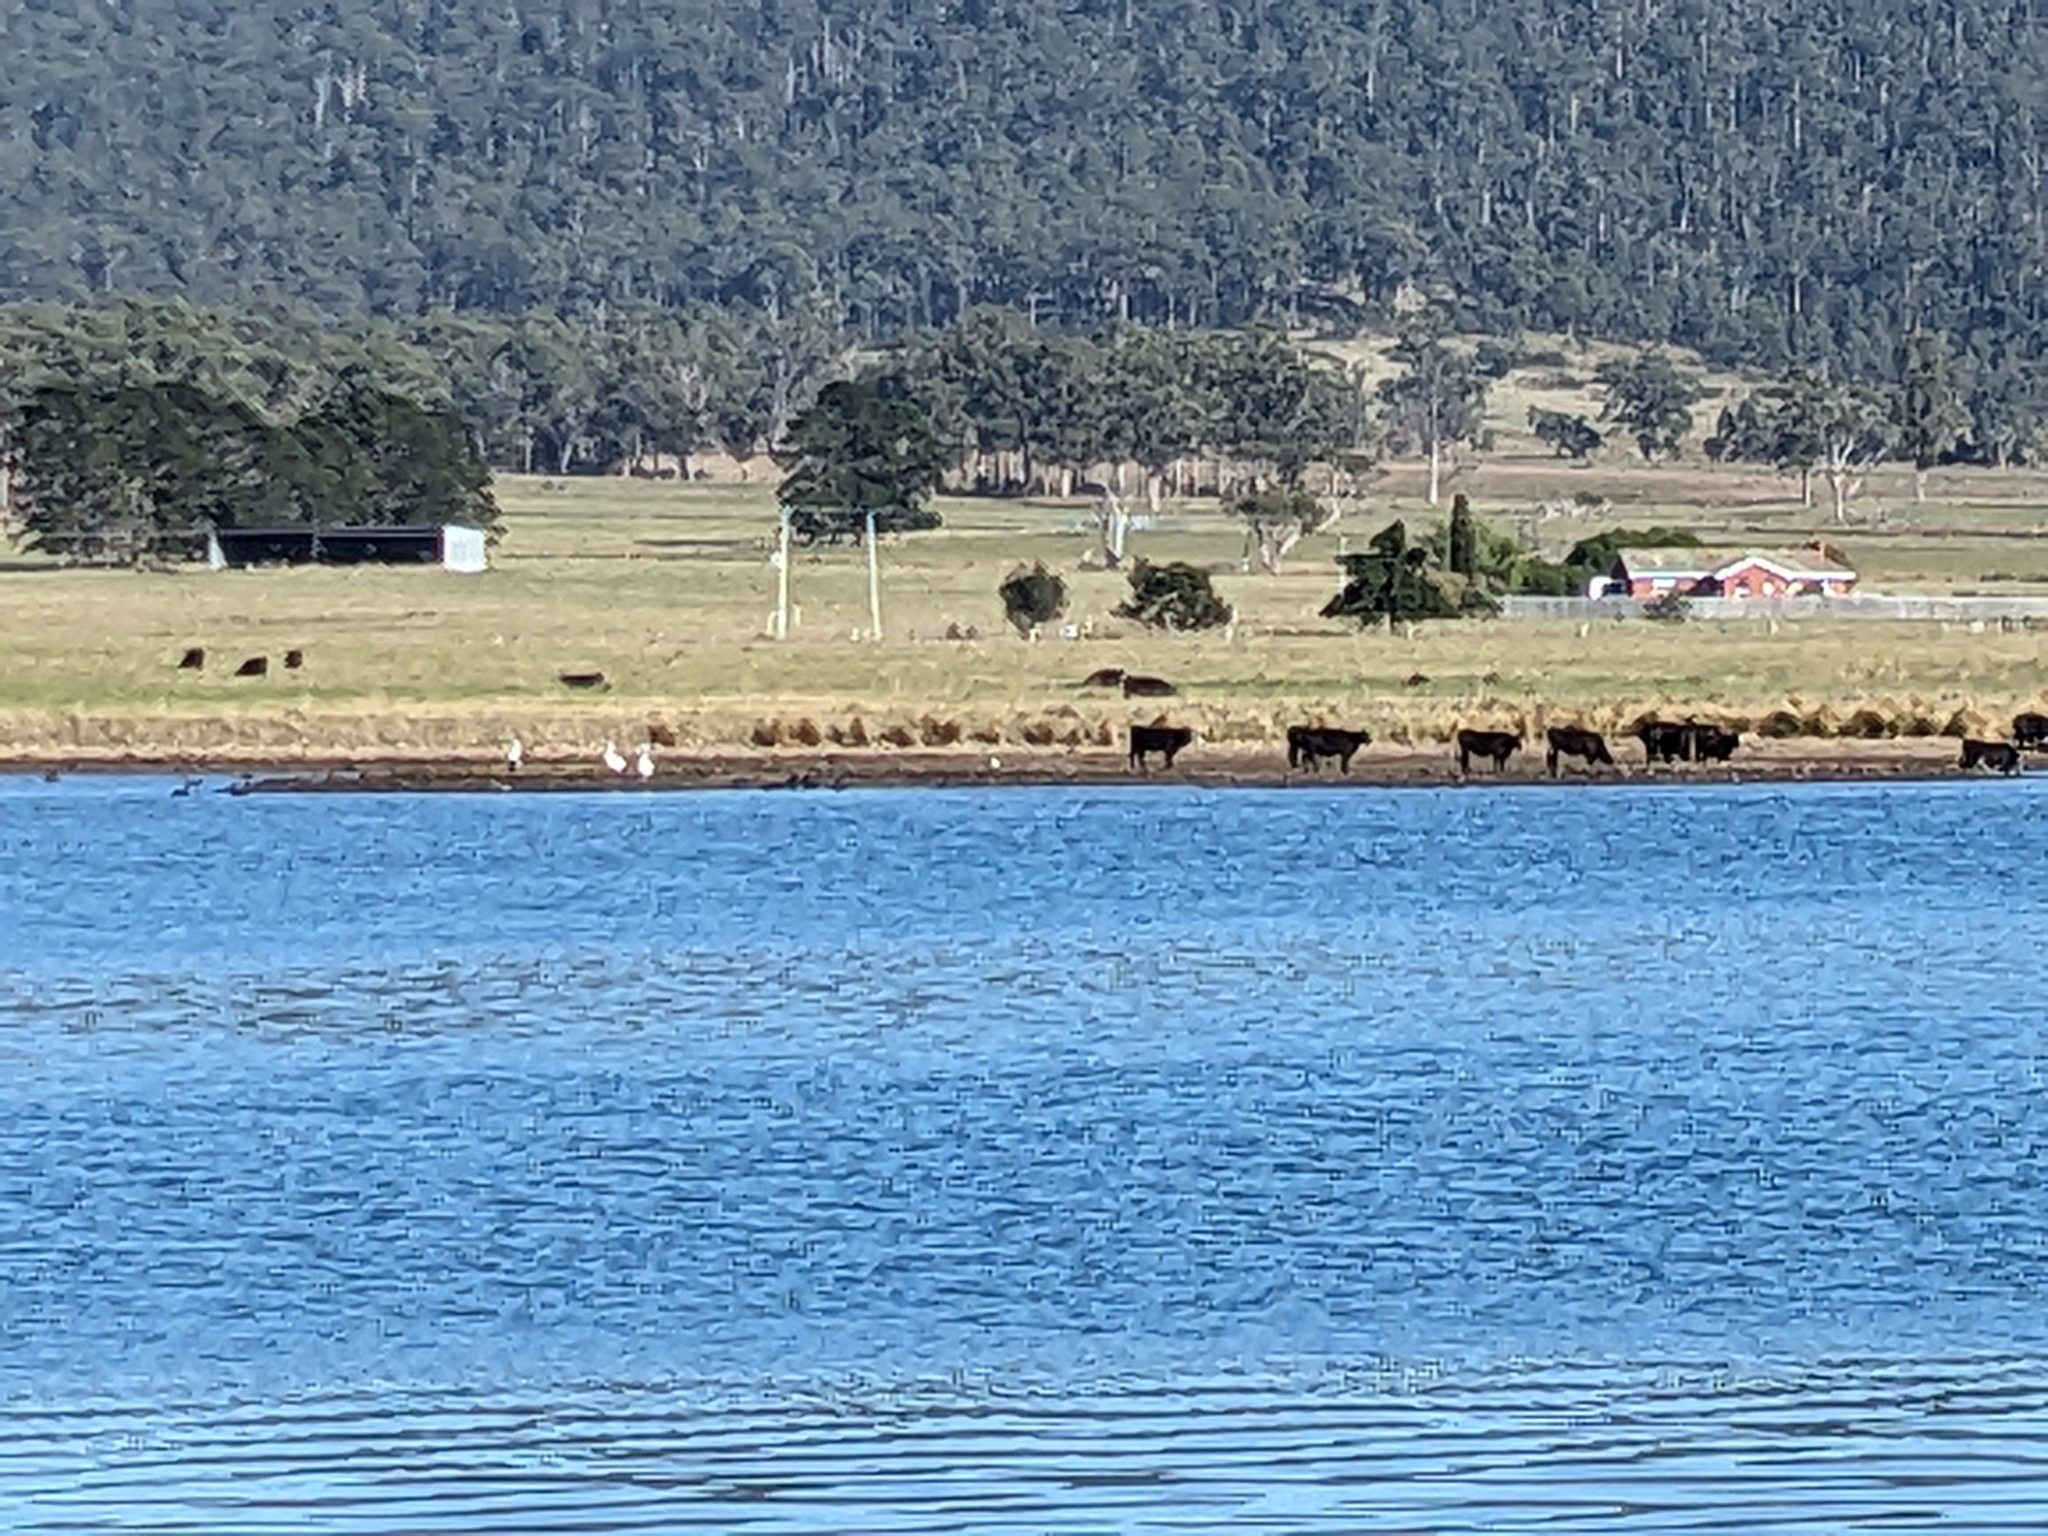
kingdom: Animalia
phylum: Chordata
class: Aves
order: Pelecaniformes
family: Pelecanidae
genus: Pelecanus
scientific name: Pelecanus conspicillatus
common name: Australian pelican
